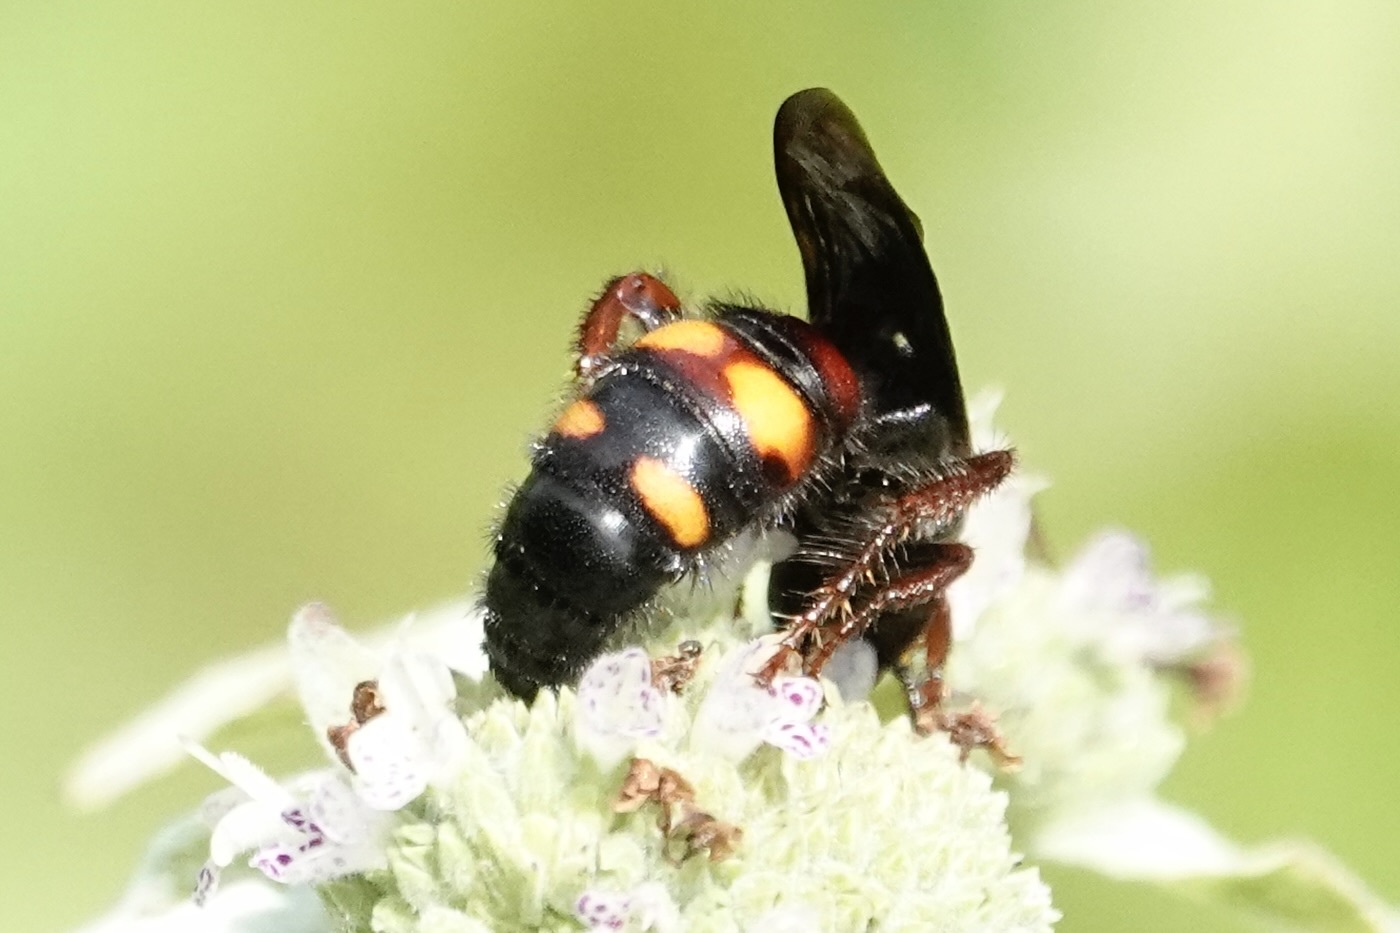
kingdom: Animalia
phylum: Arthropoda
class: Insecta
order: Hymenoptera
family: Scoliidae
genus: Scolia
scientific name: Scolia nobilitata
